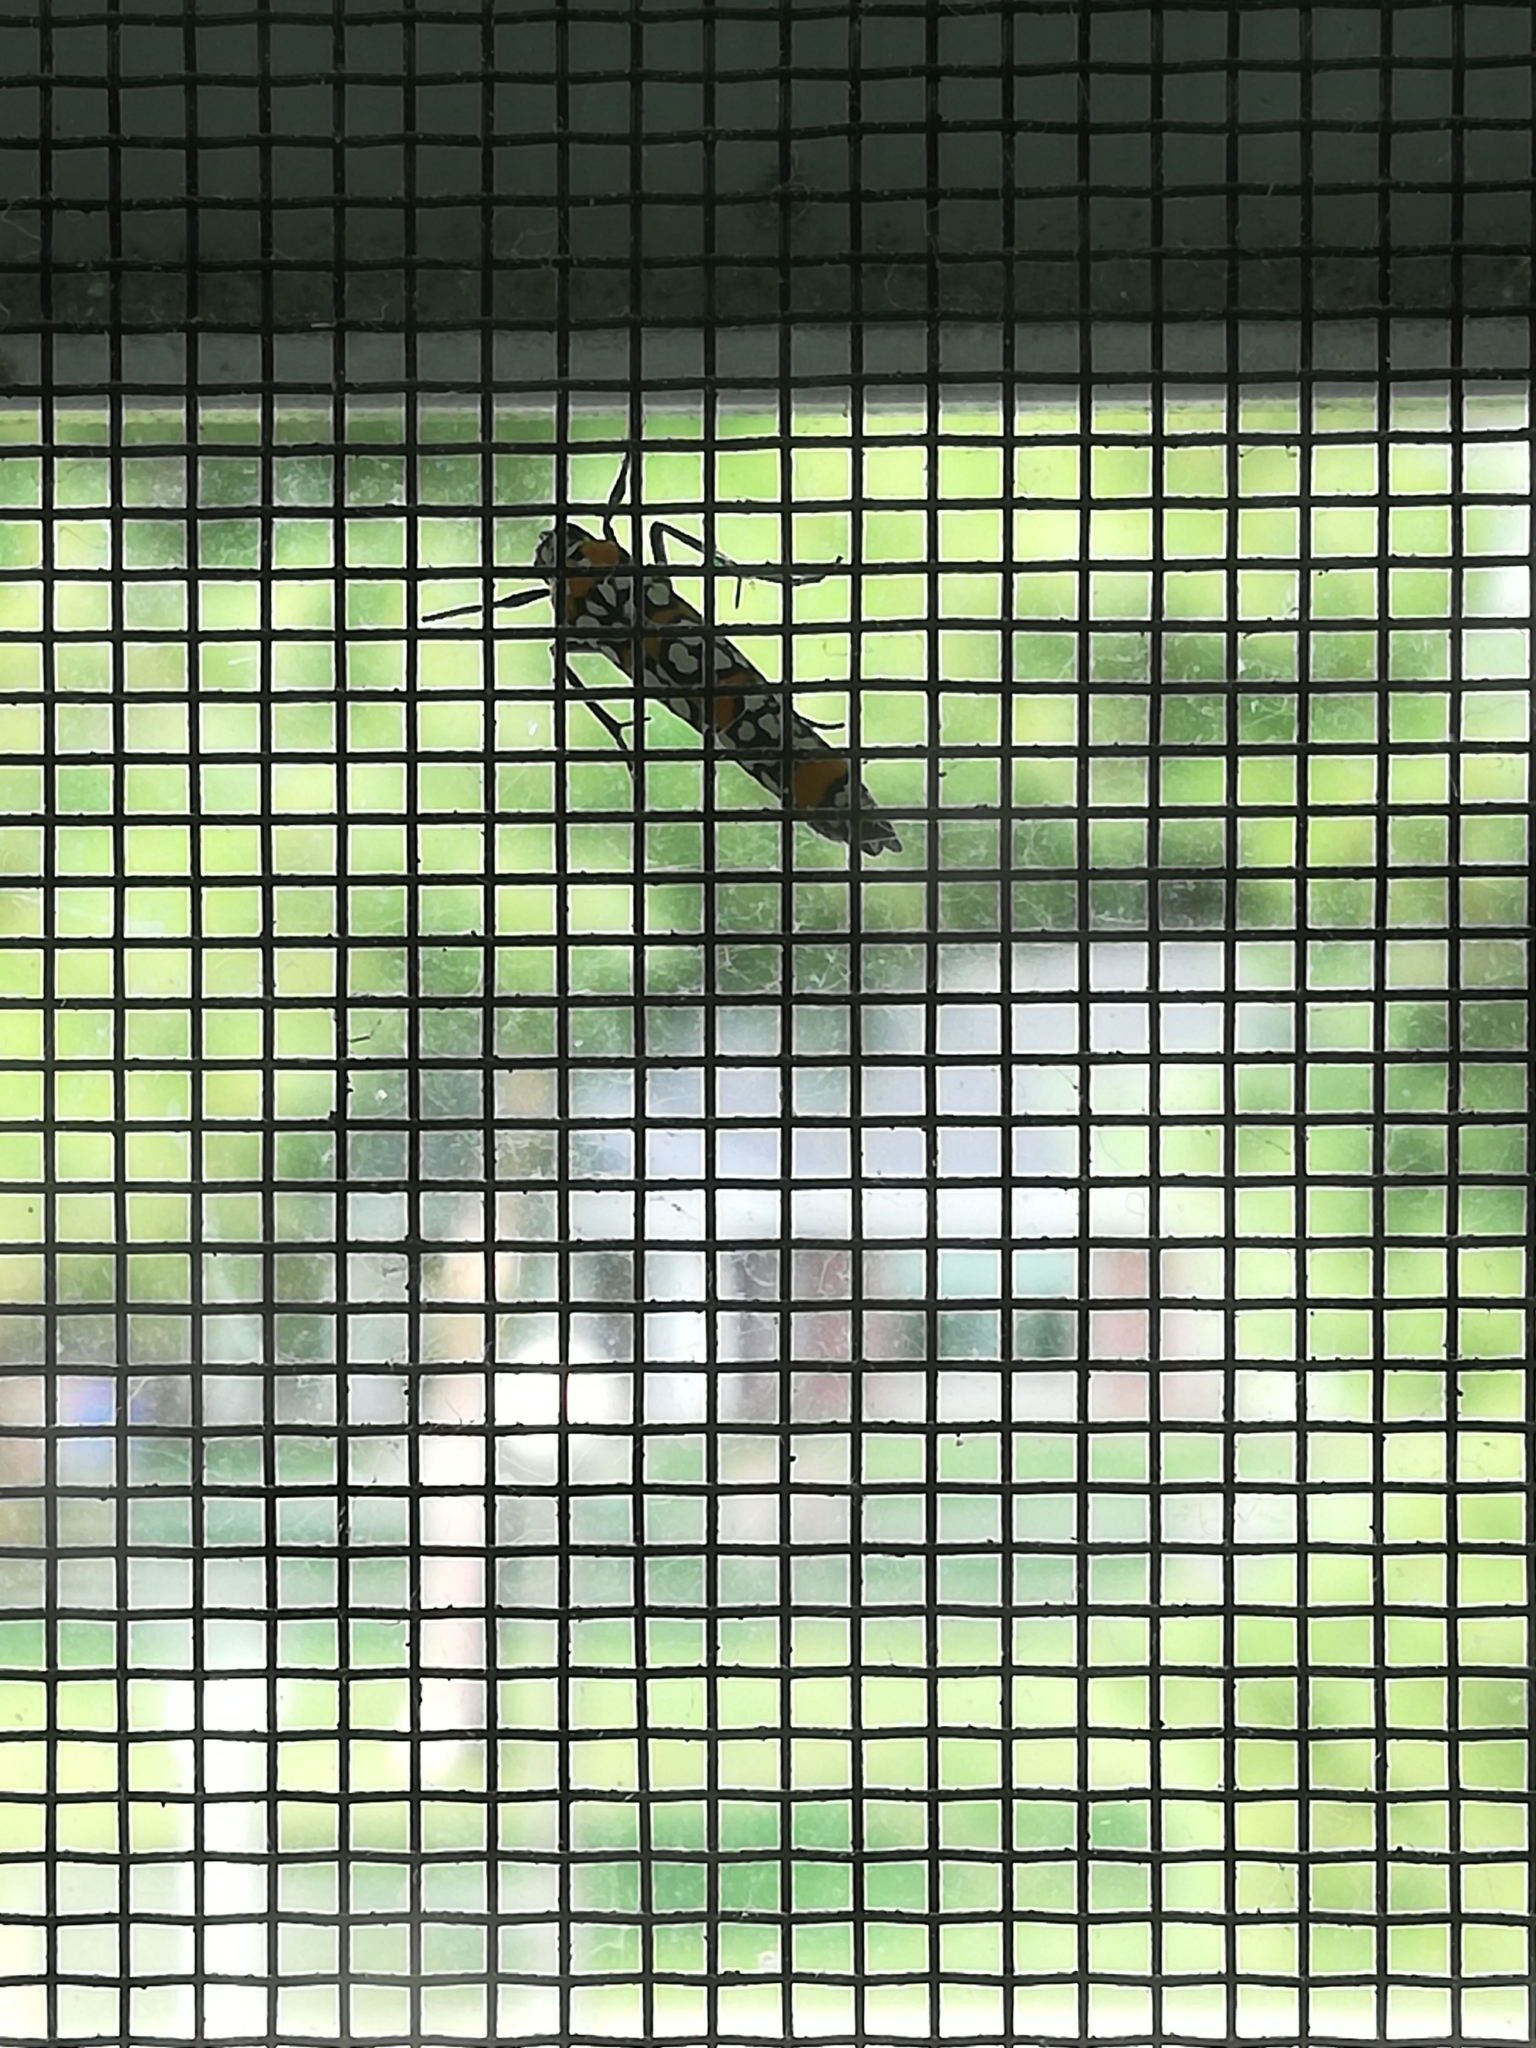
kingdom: Animalia
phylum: Arthropoda
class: Insecta
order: Lepidoptera
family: Attevidae
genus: Atteva
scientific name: Atteva punctella
